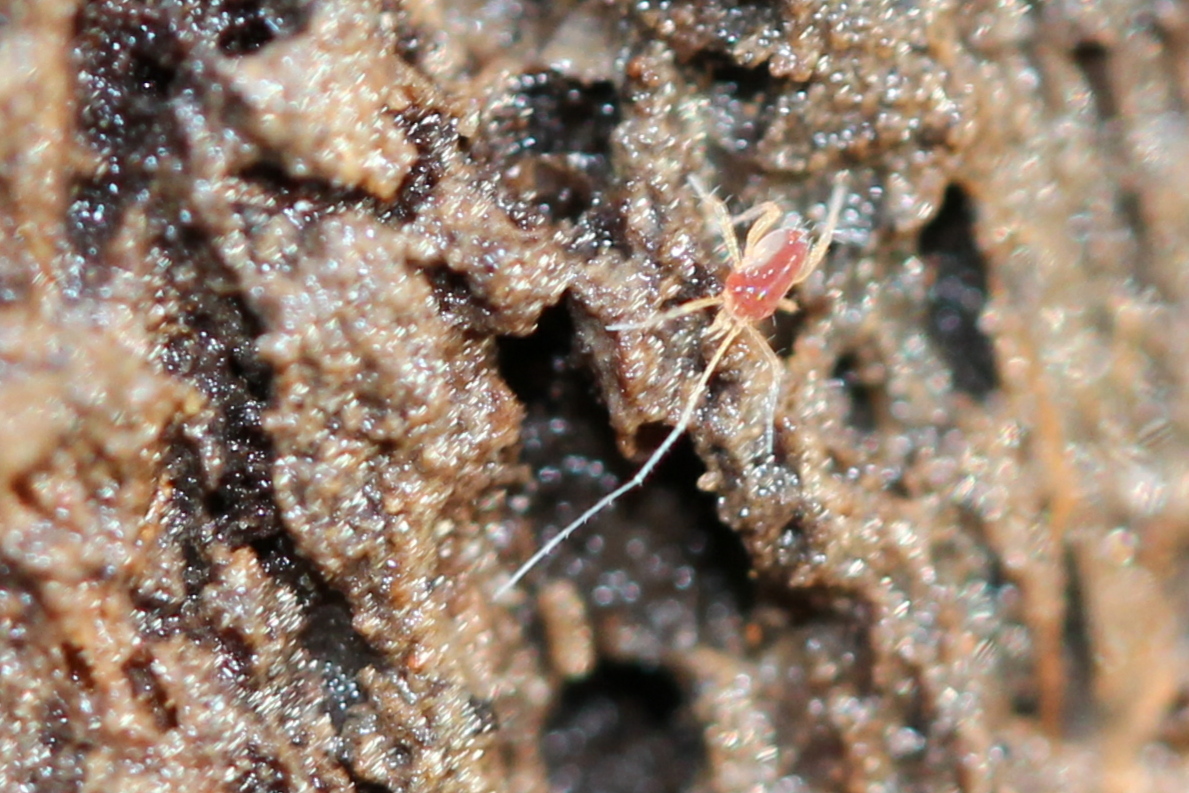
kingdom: Animalia
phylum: Arthropoda
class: Arachnida
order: Trombidiformes
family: Eupodidae
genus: Linopodes
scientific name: Linopodes
